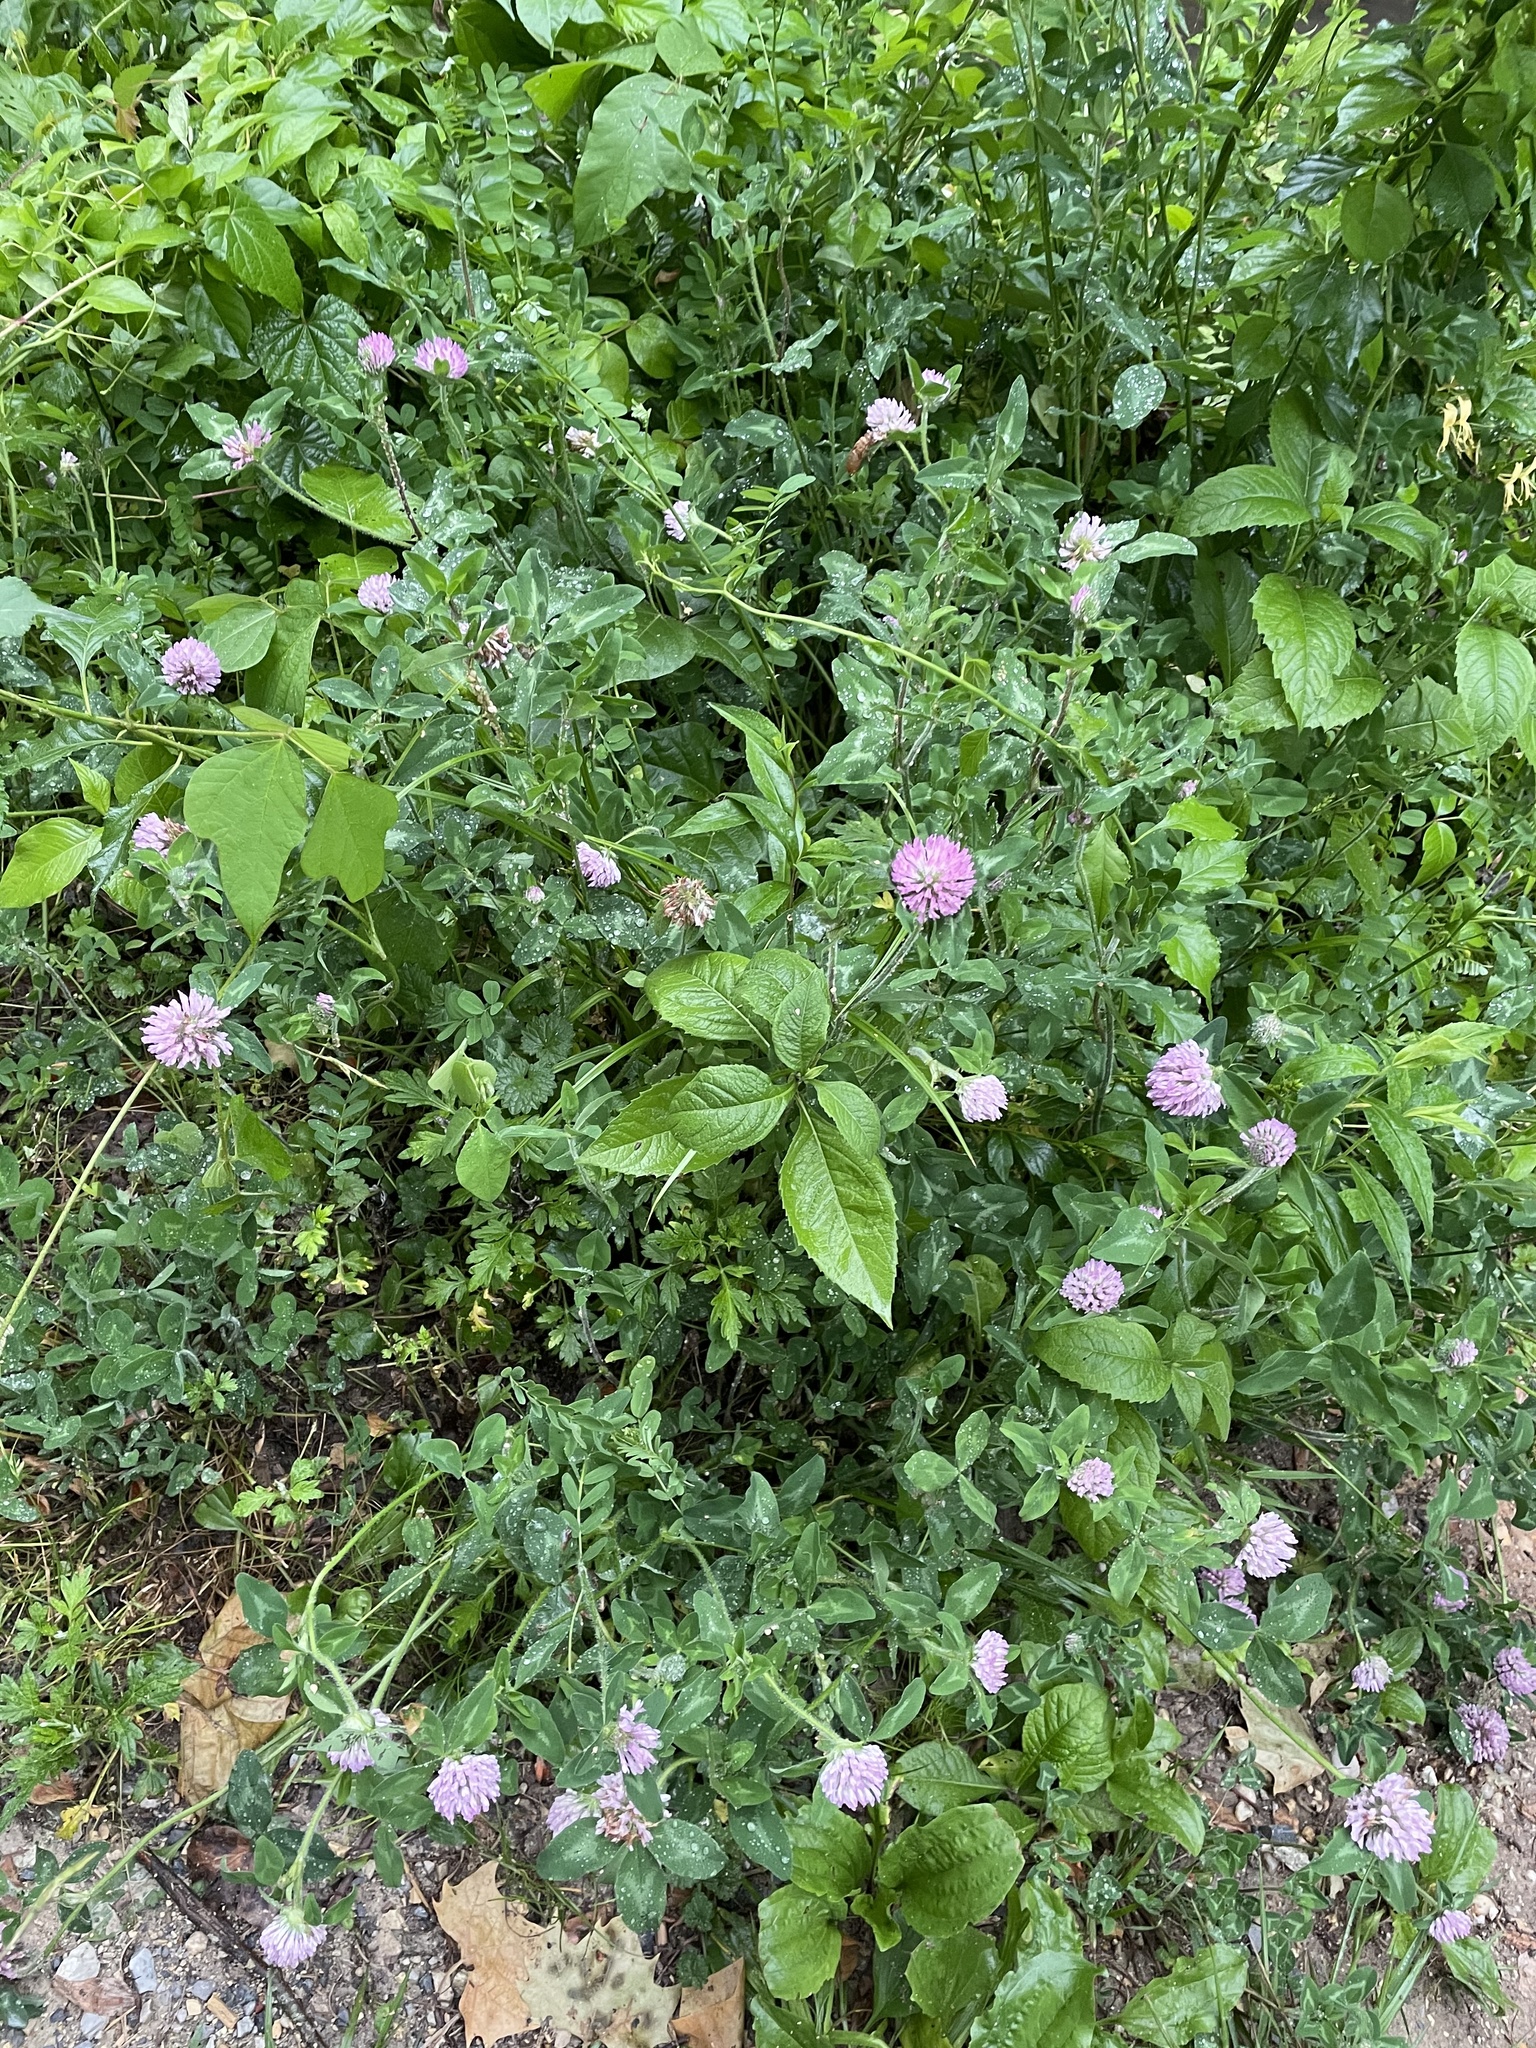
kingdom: Plantae
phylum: Tracheophyta
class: Magnoliopsida
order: Fabales
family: Fabaceae
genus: Trifolium
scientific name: Trifolium pratense
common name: Red clover
